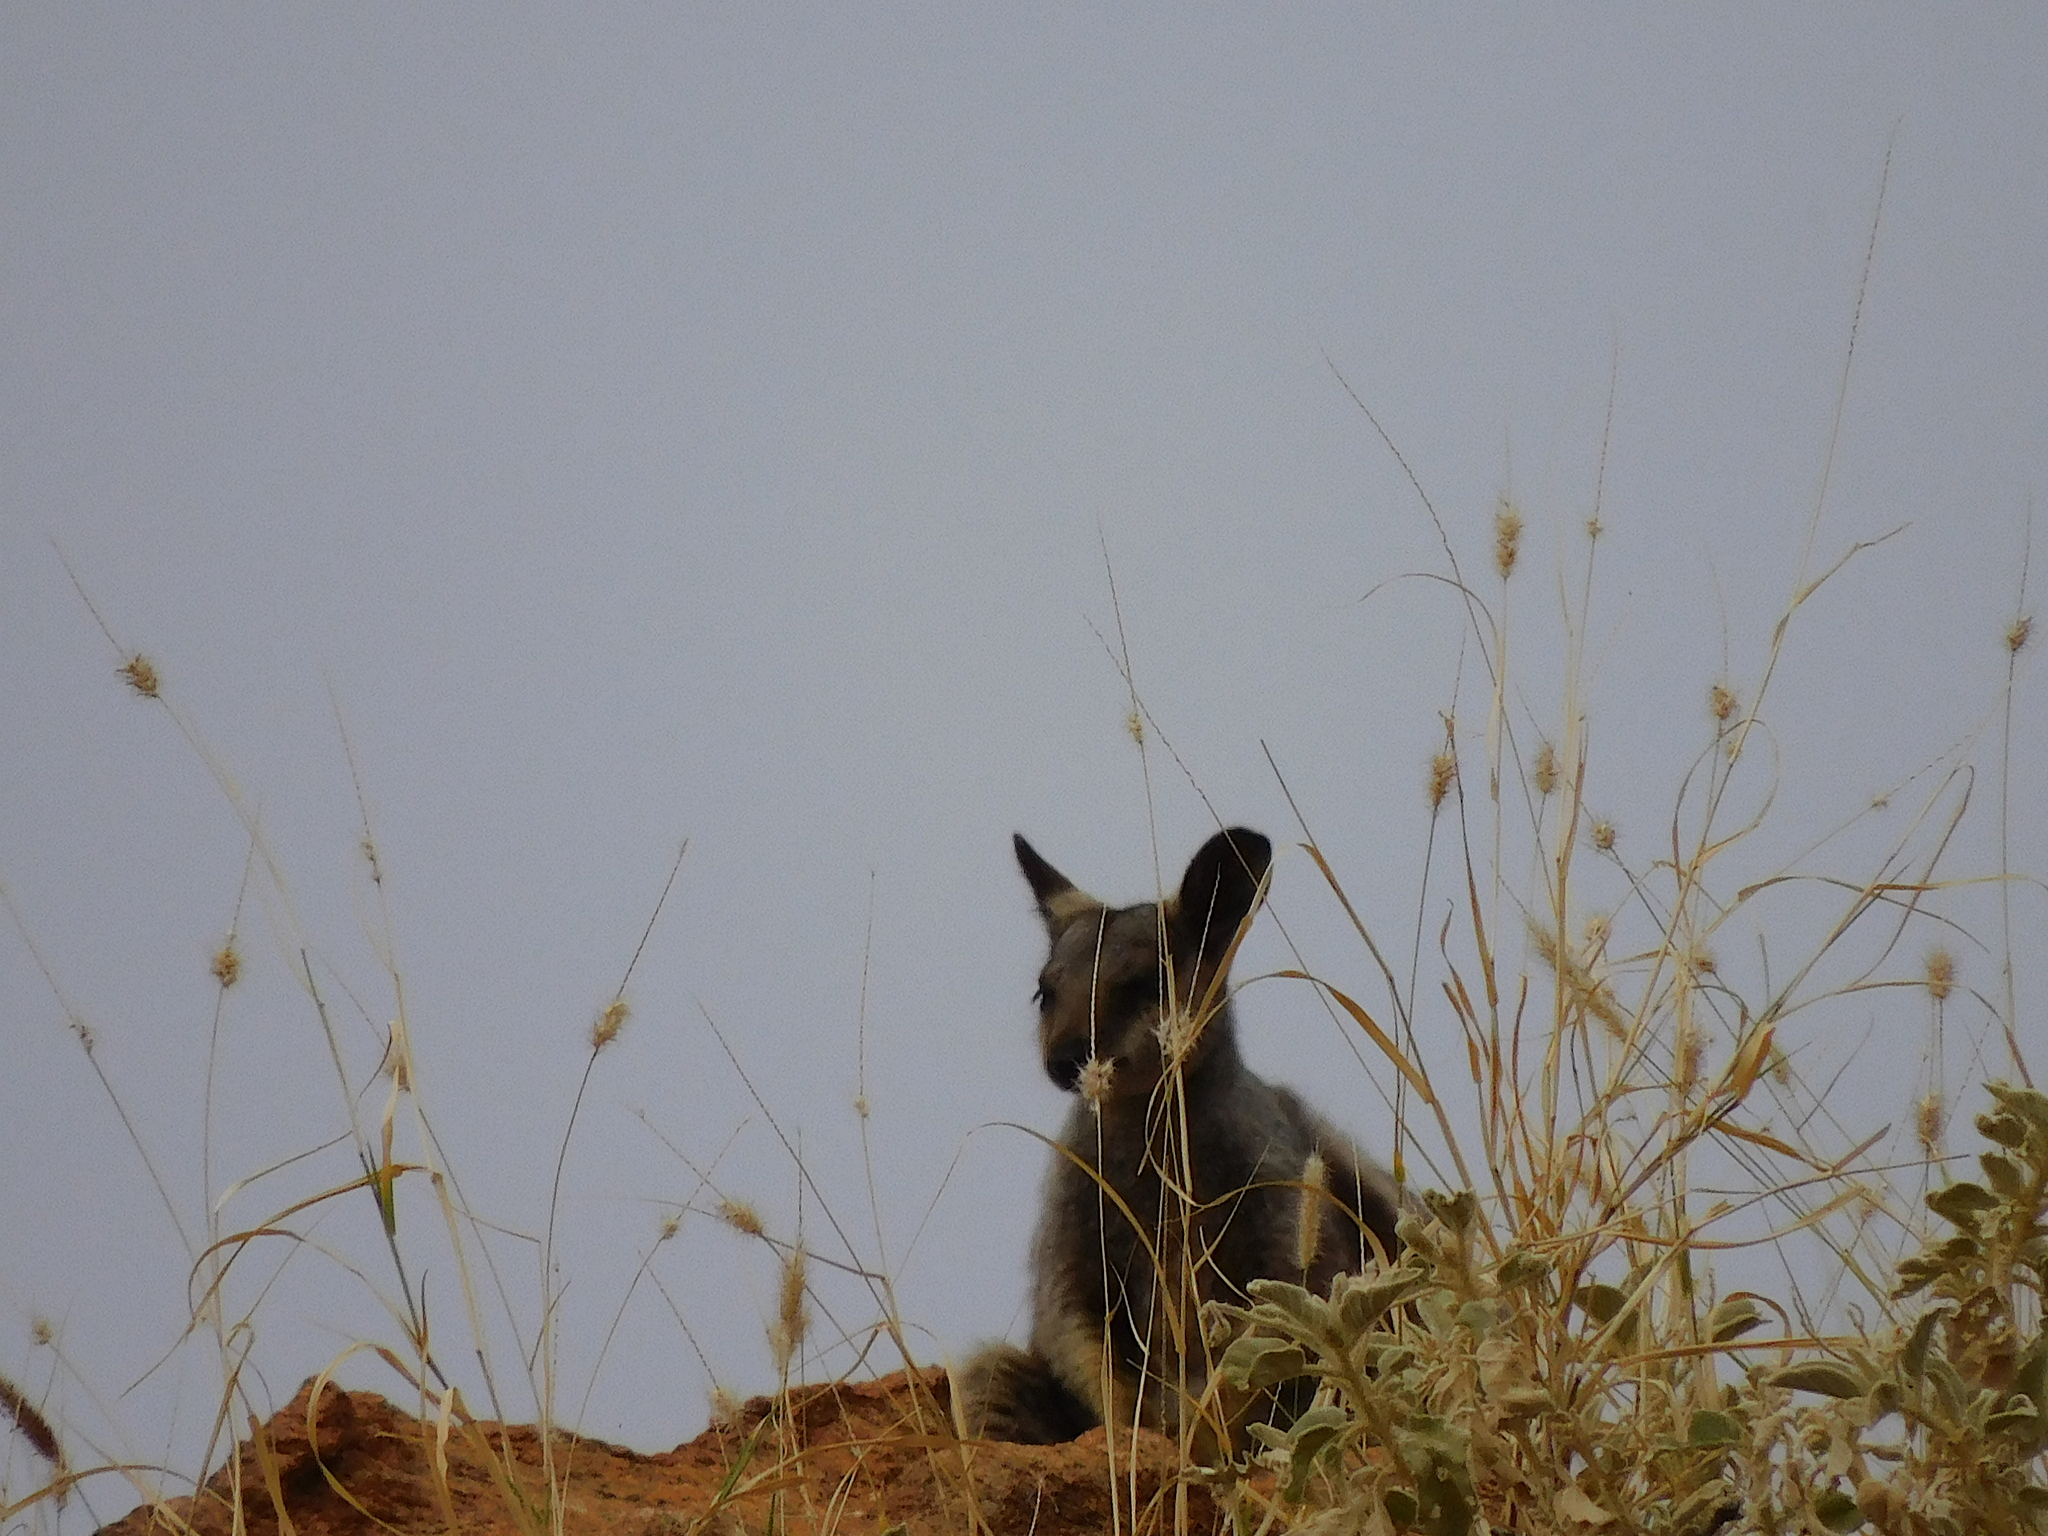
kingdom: Animalia
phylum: Chordata
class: Mammalia
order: Diprotodontia
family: Macropodidae
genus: Petrogale
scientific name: Petrogale lateralis
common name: Black-flanked rock-wallaby
